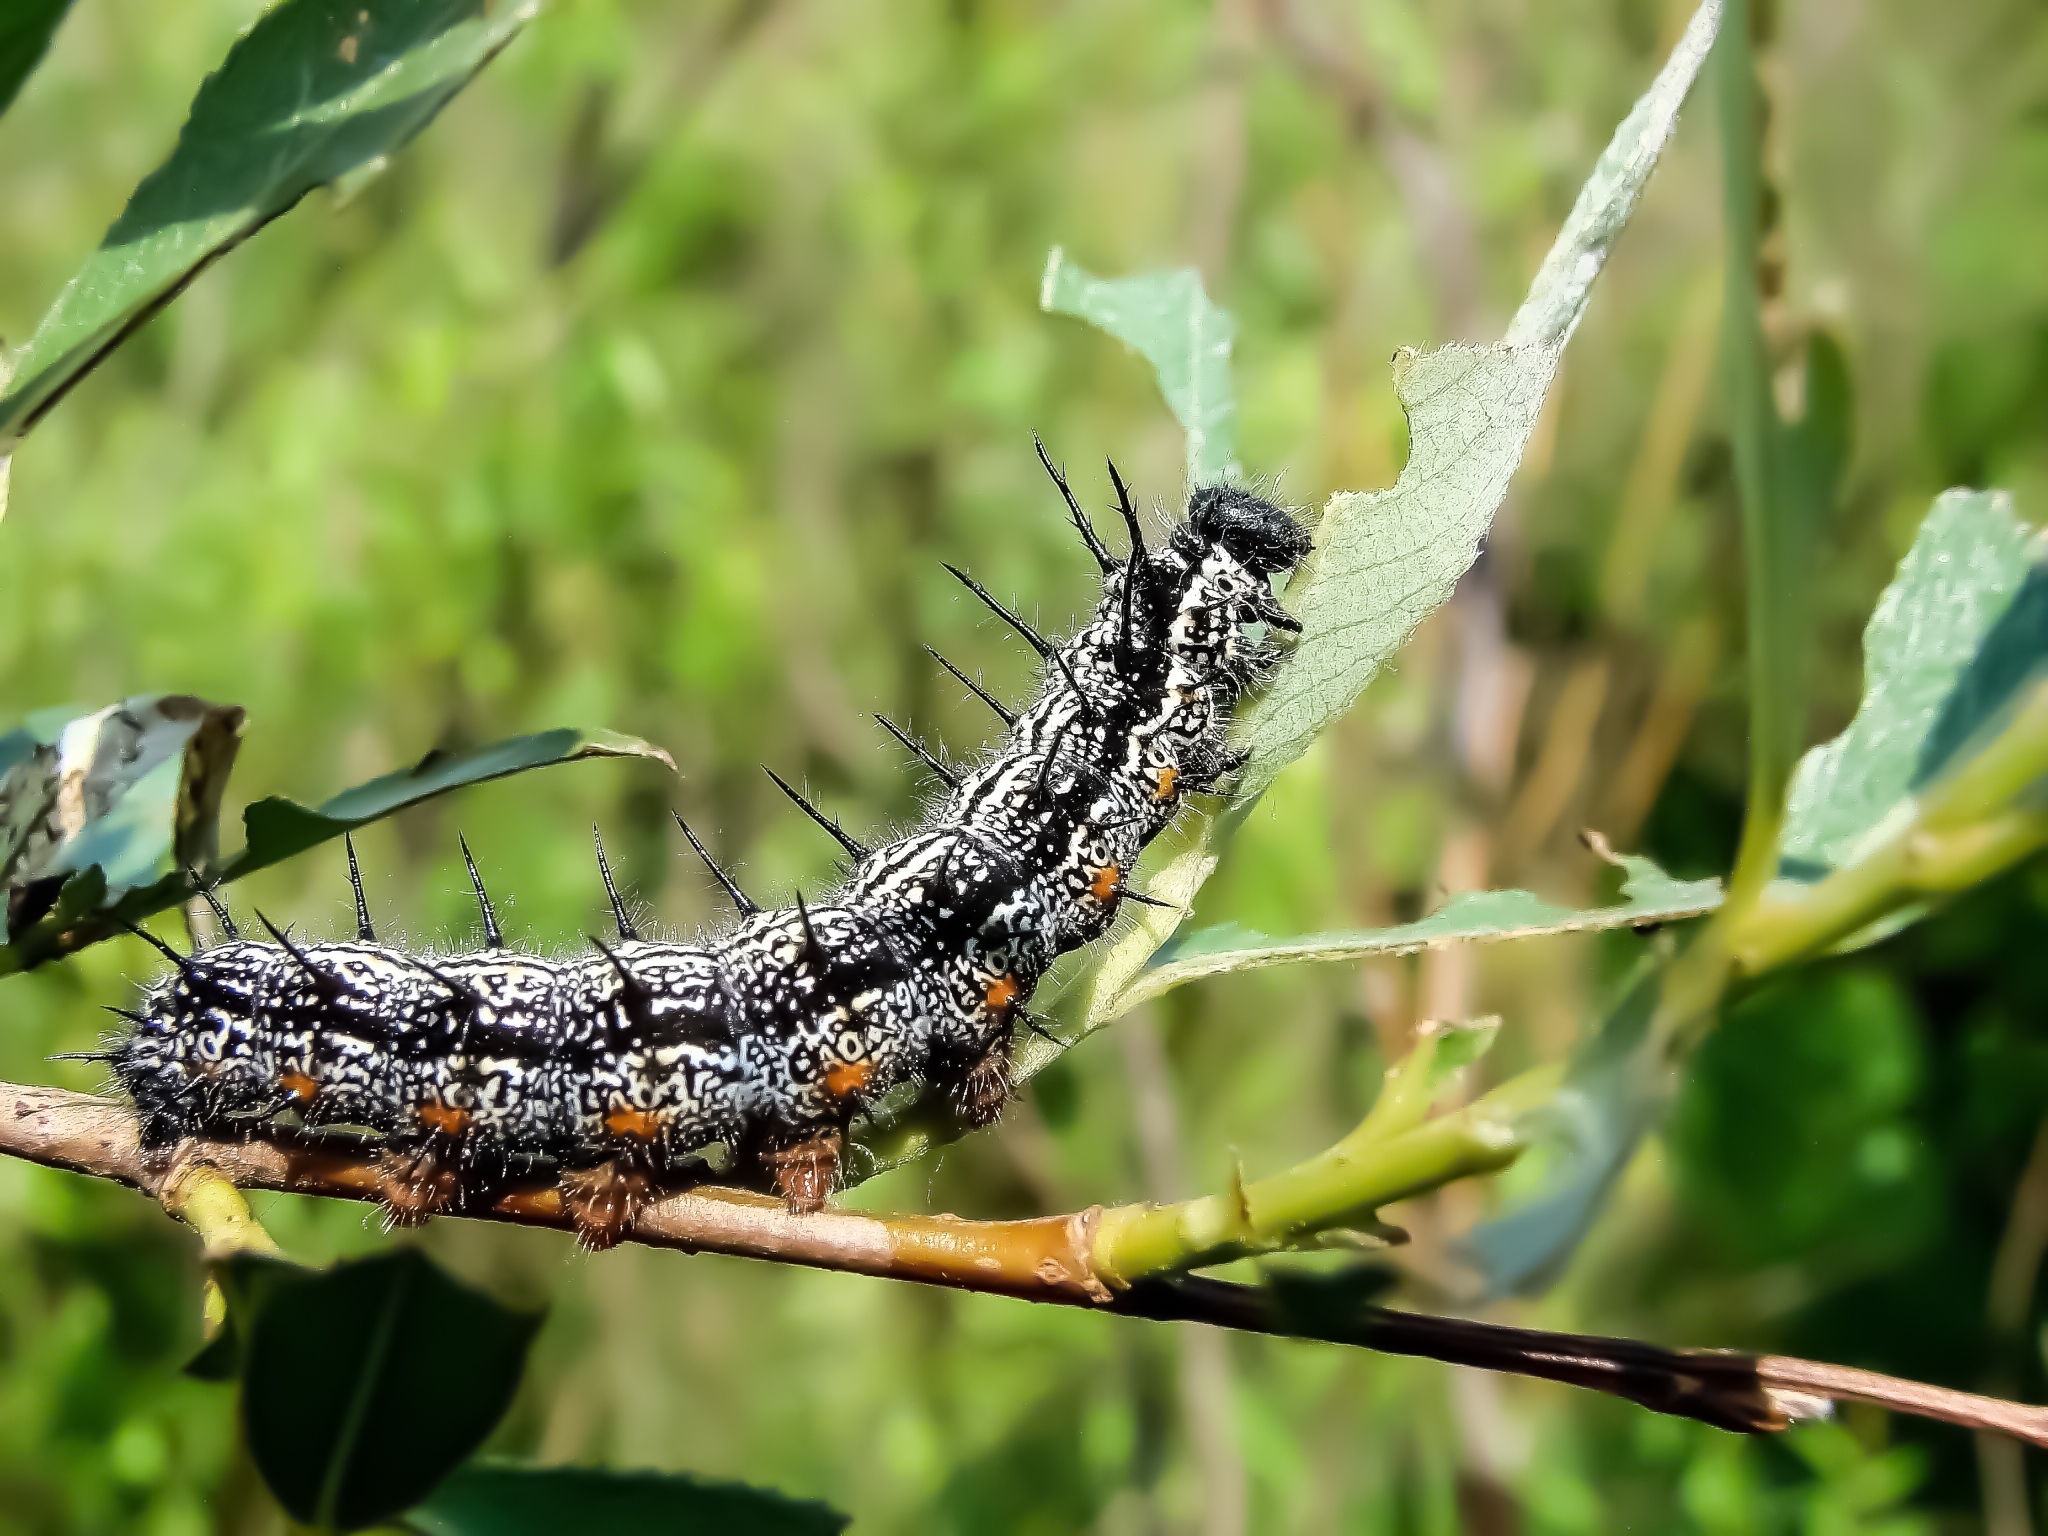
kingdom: Animalia
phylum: Arthropoda
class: Insecta
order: Lepidoptera
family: Nymphalidae
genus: Nymphalis
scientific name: Nymphalis xanthomelas
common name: Scarce tortoiseshell
